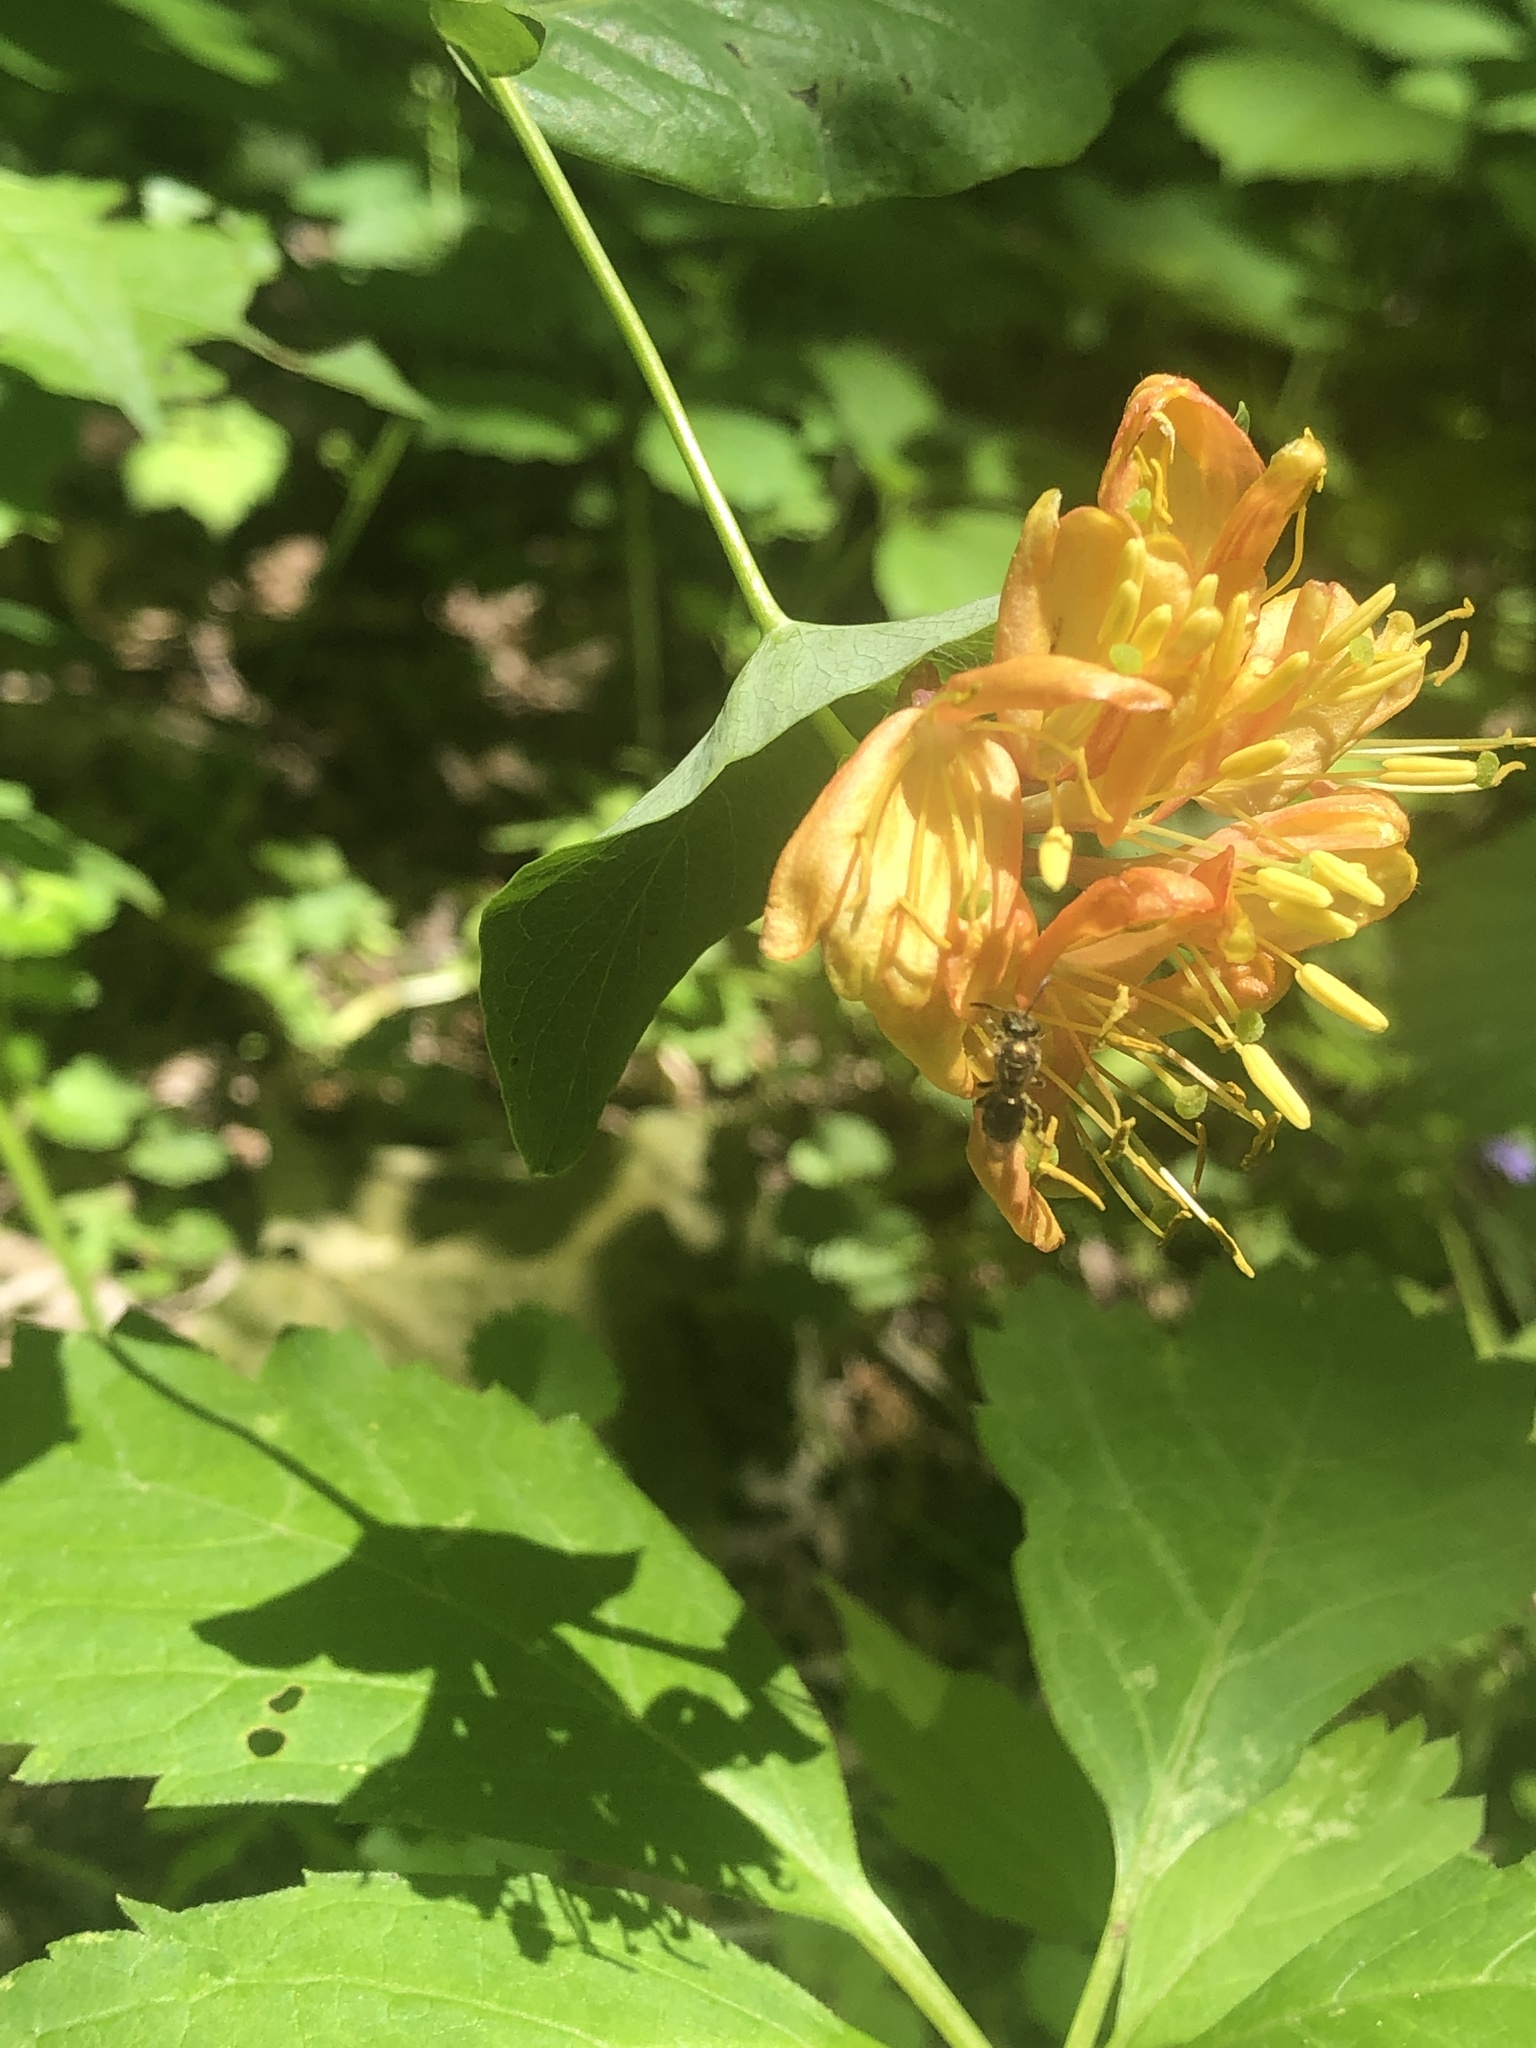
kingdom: Plantae
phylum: Tracheophyta
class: Magnoliopsida
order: Dipsacales
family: Caprifoliaceae
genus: Lonicera
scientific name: Lonicera dioica
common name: Limber honeysuckle
